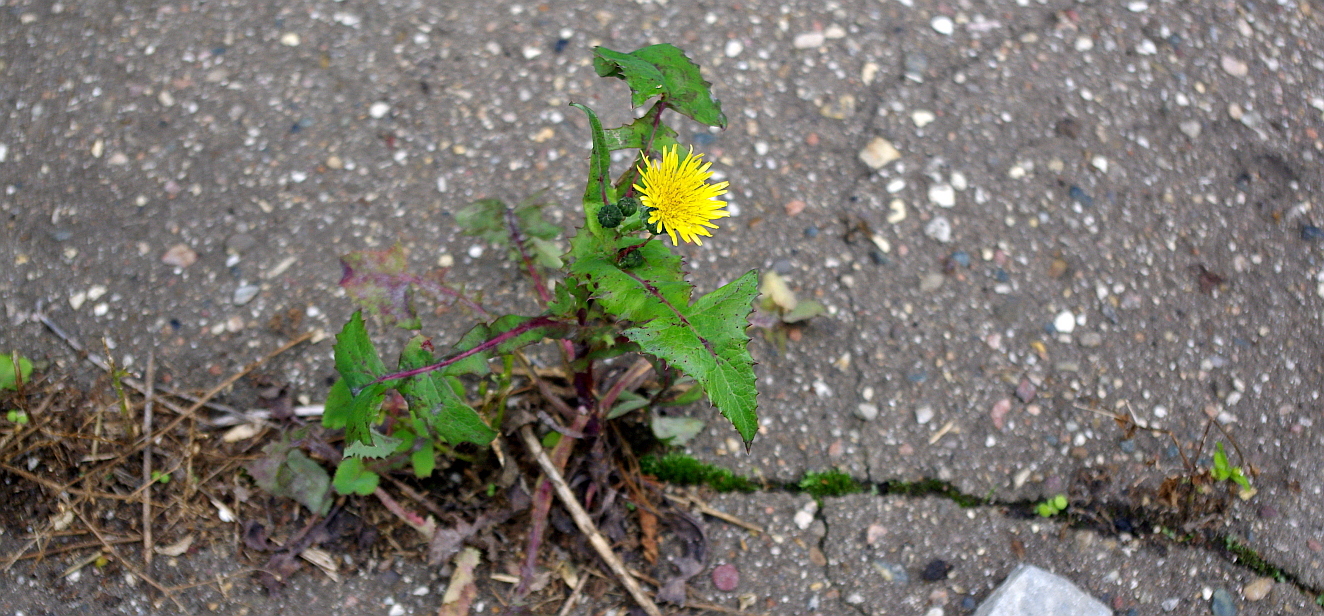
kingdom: Plantae
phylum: Tracheophyta
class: Magnoliopsida
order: Asterales
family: Asteraceae
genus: Sonchus
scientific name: Sonchus oleraceus
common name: Common sowthistle
